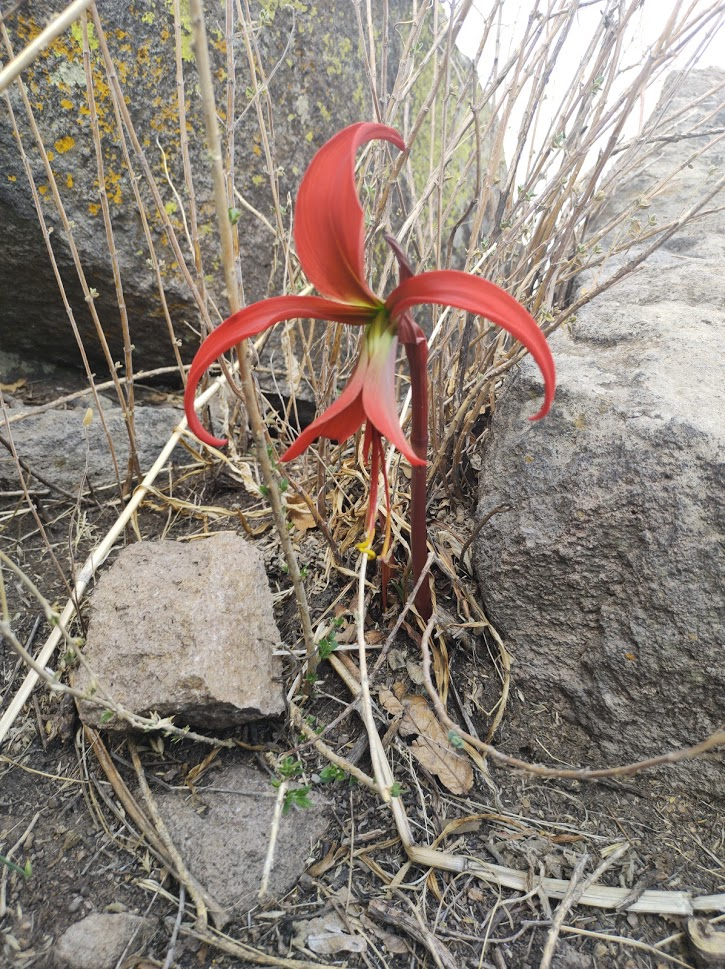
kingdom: Plantae
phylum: Tracheophyta
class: Liliopsida
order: Asparagales
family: Amaryllidaceae
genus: Sprekelia
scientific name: Sprekelia formosissima
